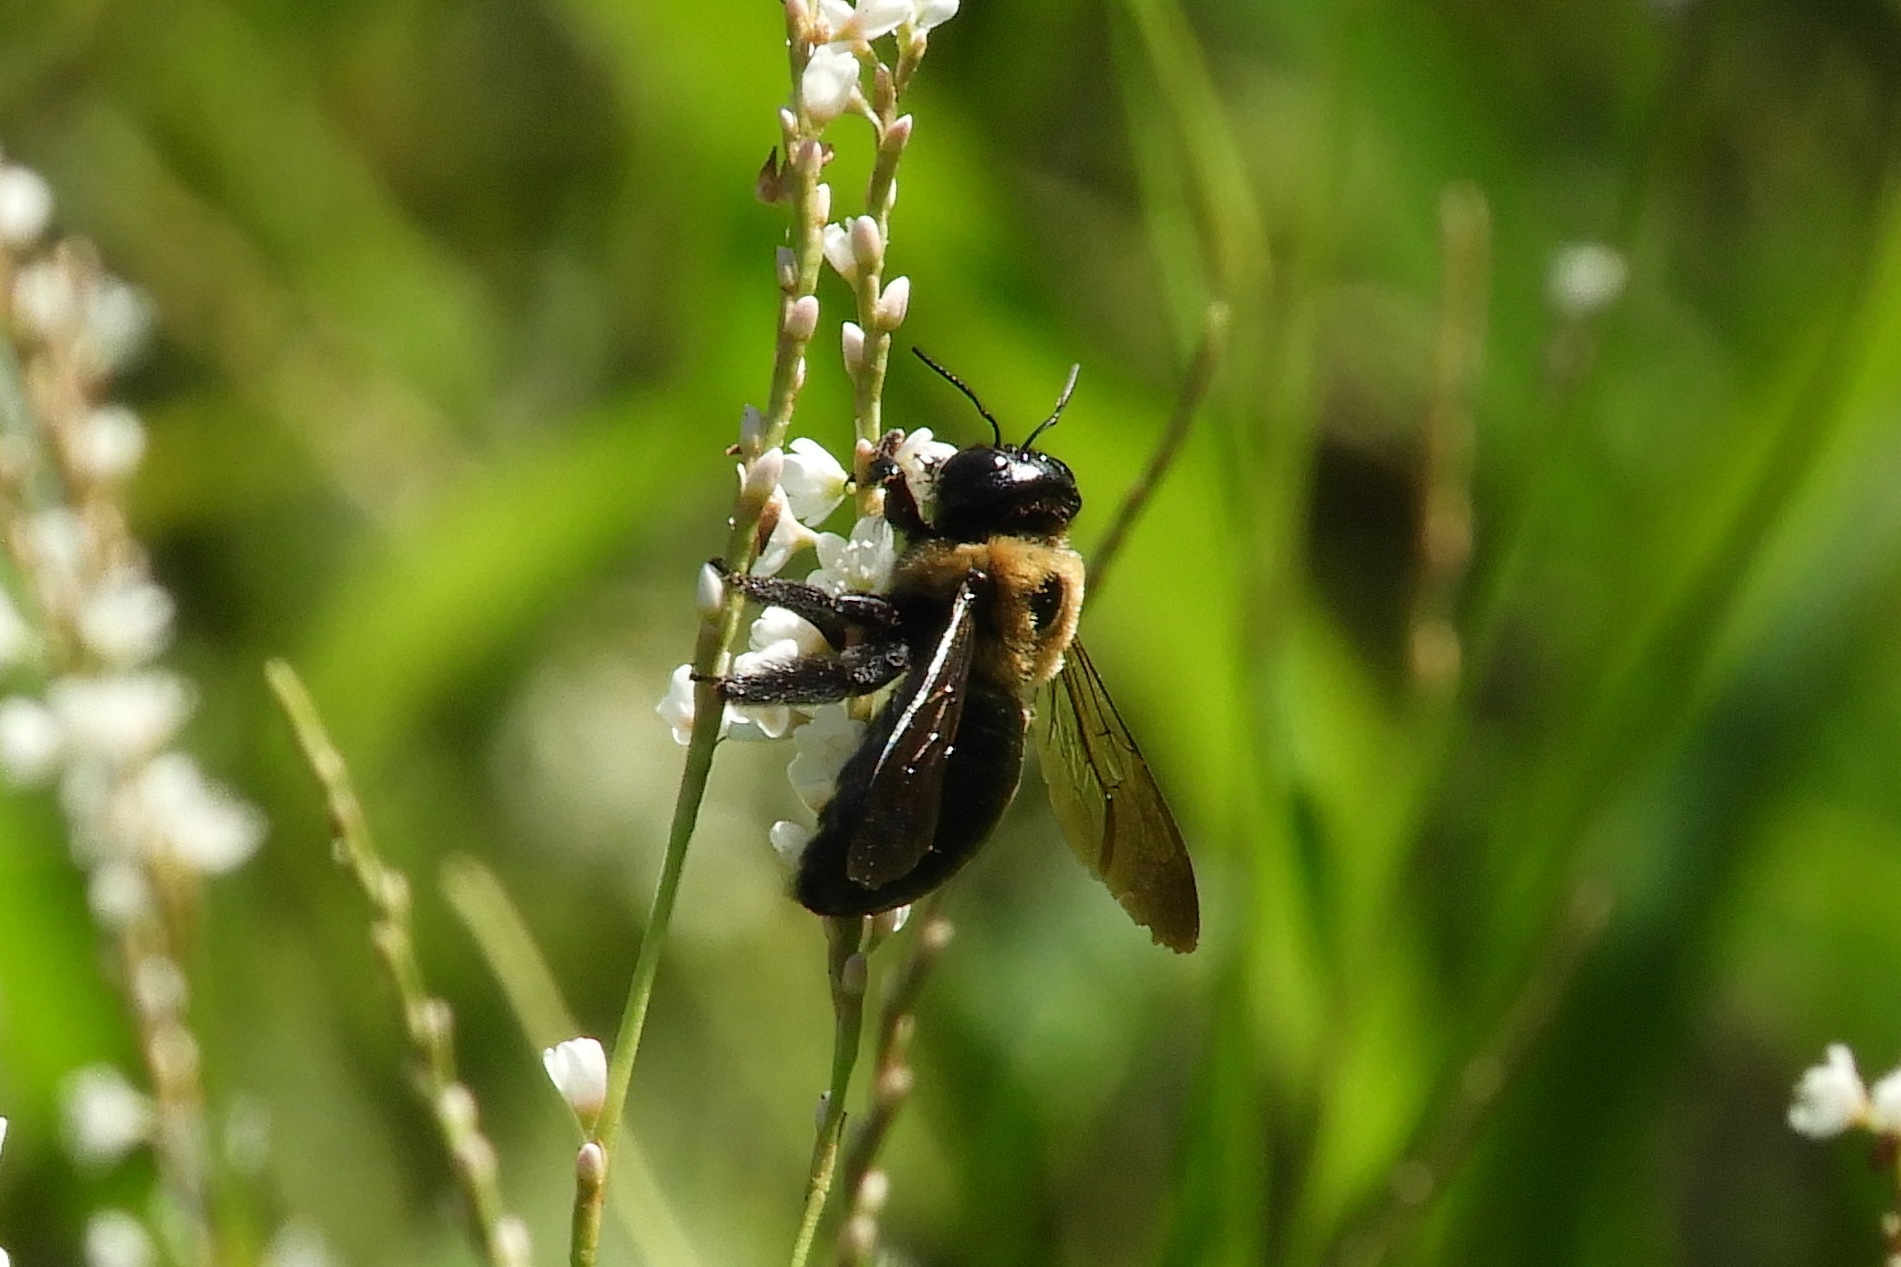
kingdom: Animalia
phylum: Arthropoda
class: Insecta
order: Hymenoptera
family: Apidae
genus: Xylocopa
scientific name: Xylocopa virginica
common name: Carpenter bee
